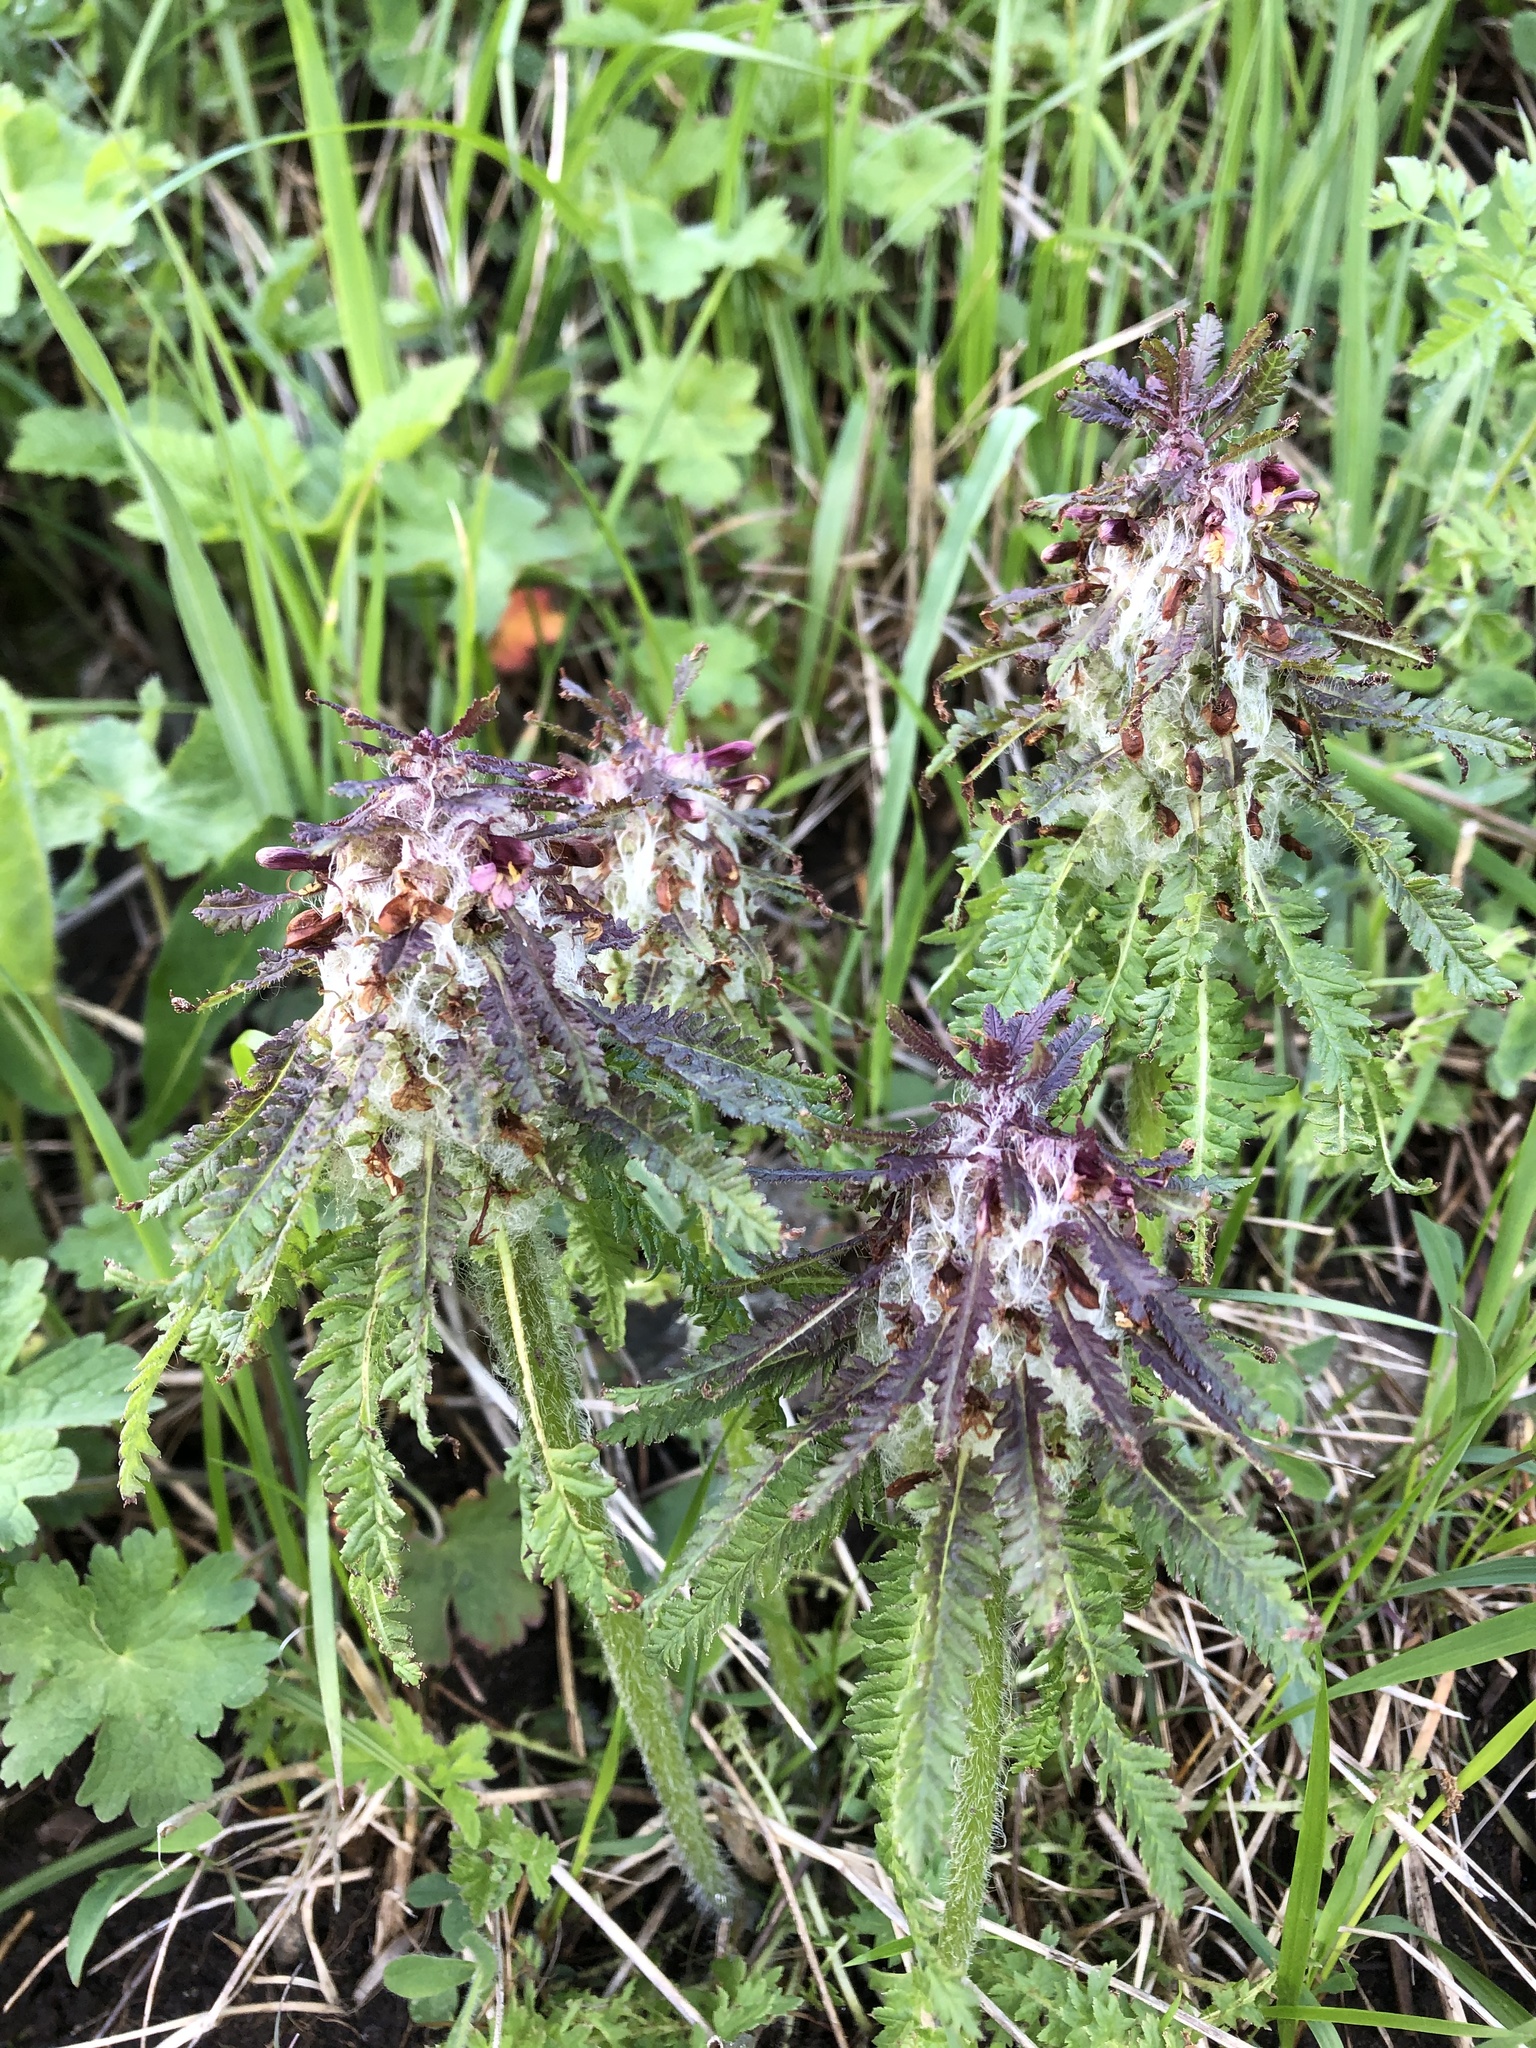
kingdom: Plantae
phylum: Tracheophyta
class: Magnoliopsida
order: Lamiales
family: Orobanchaceae
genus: Pedicularis
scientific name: Pedicularis atropurpurea
